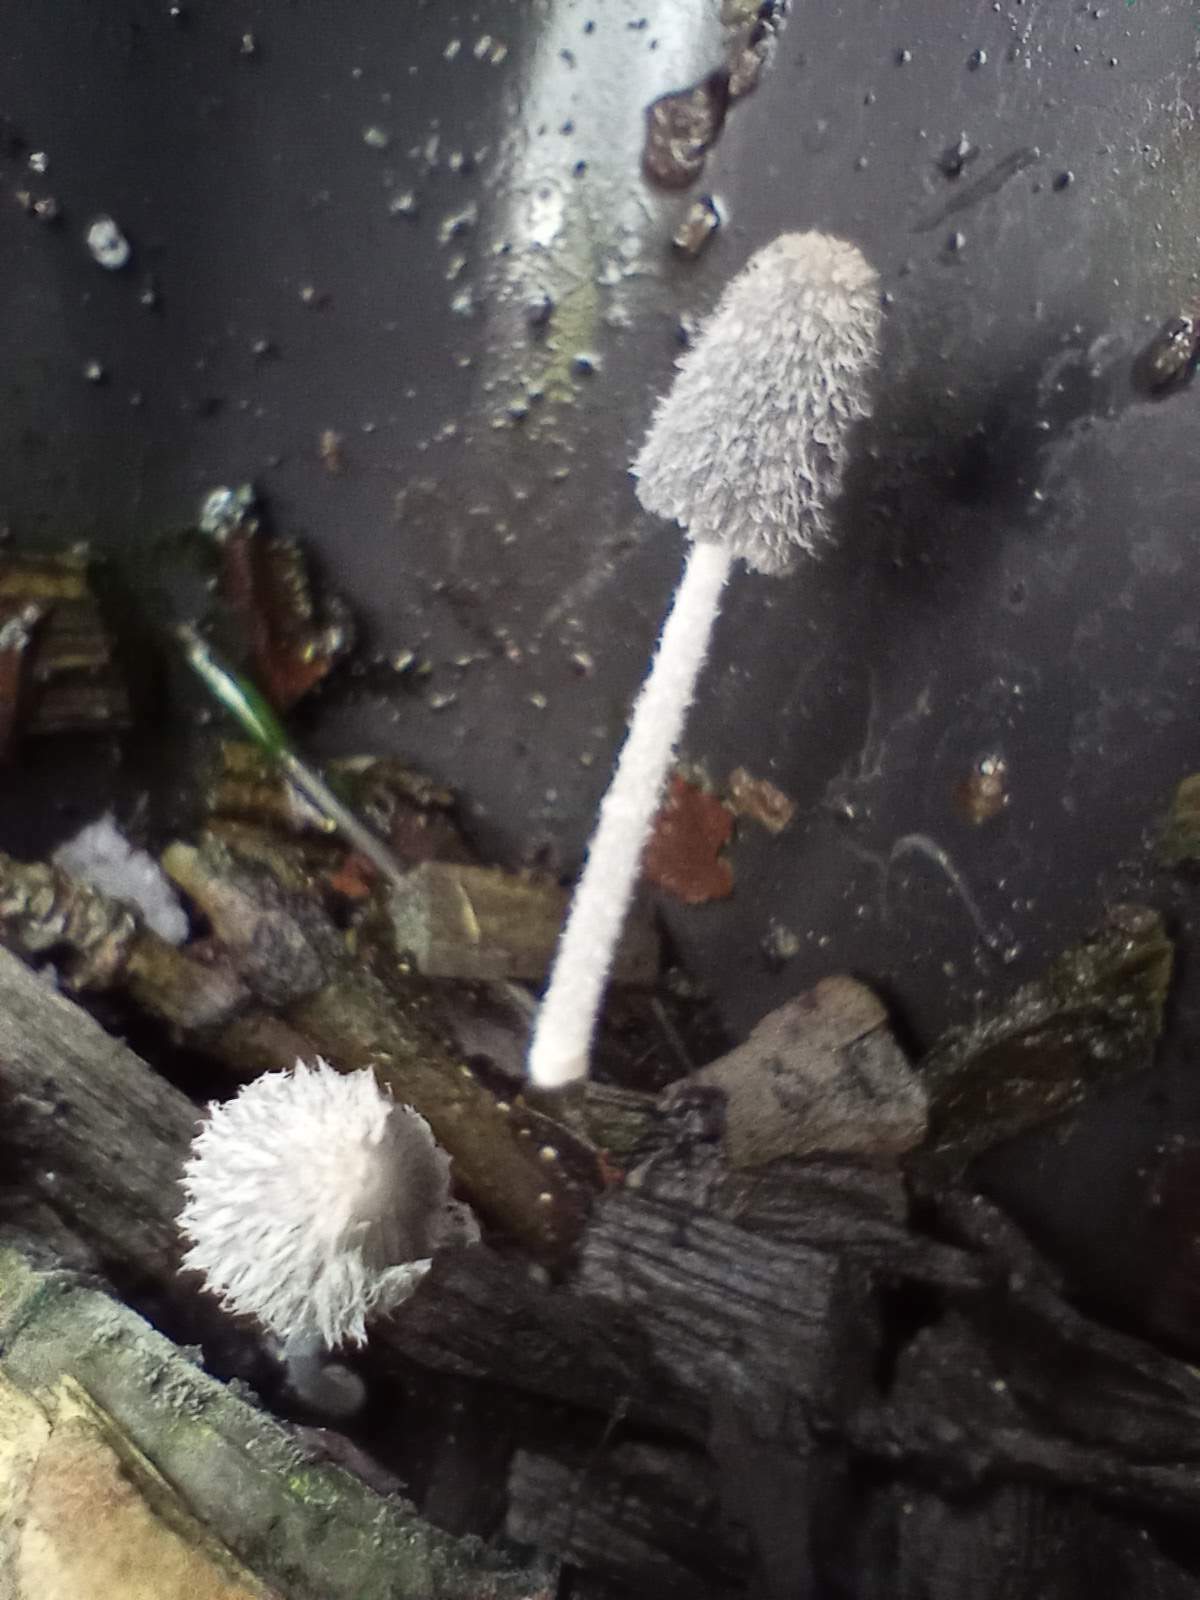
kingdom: Fungi
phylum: Basidiomycota
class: Agaricomycetes
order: Agaricales
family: Psathyrellaceae
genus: Coprinopsis
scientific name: Coprinopsis lagopus
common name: Hare'sfoot inkcap
